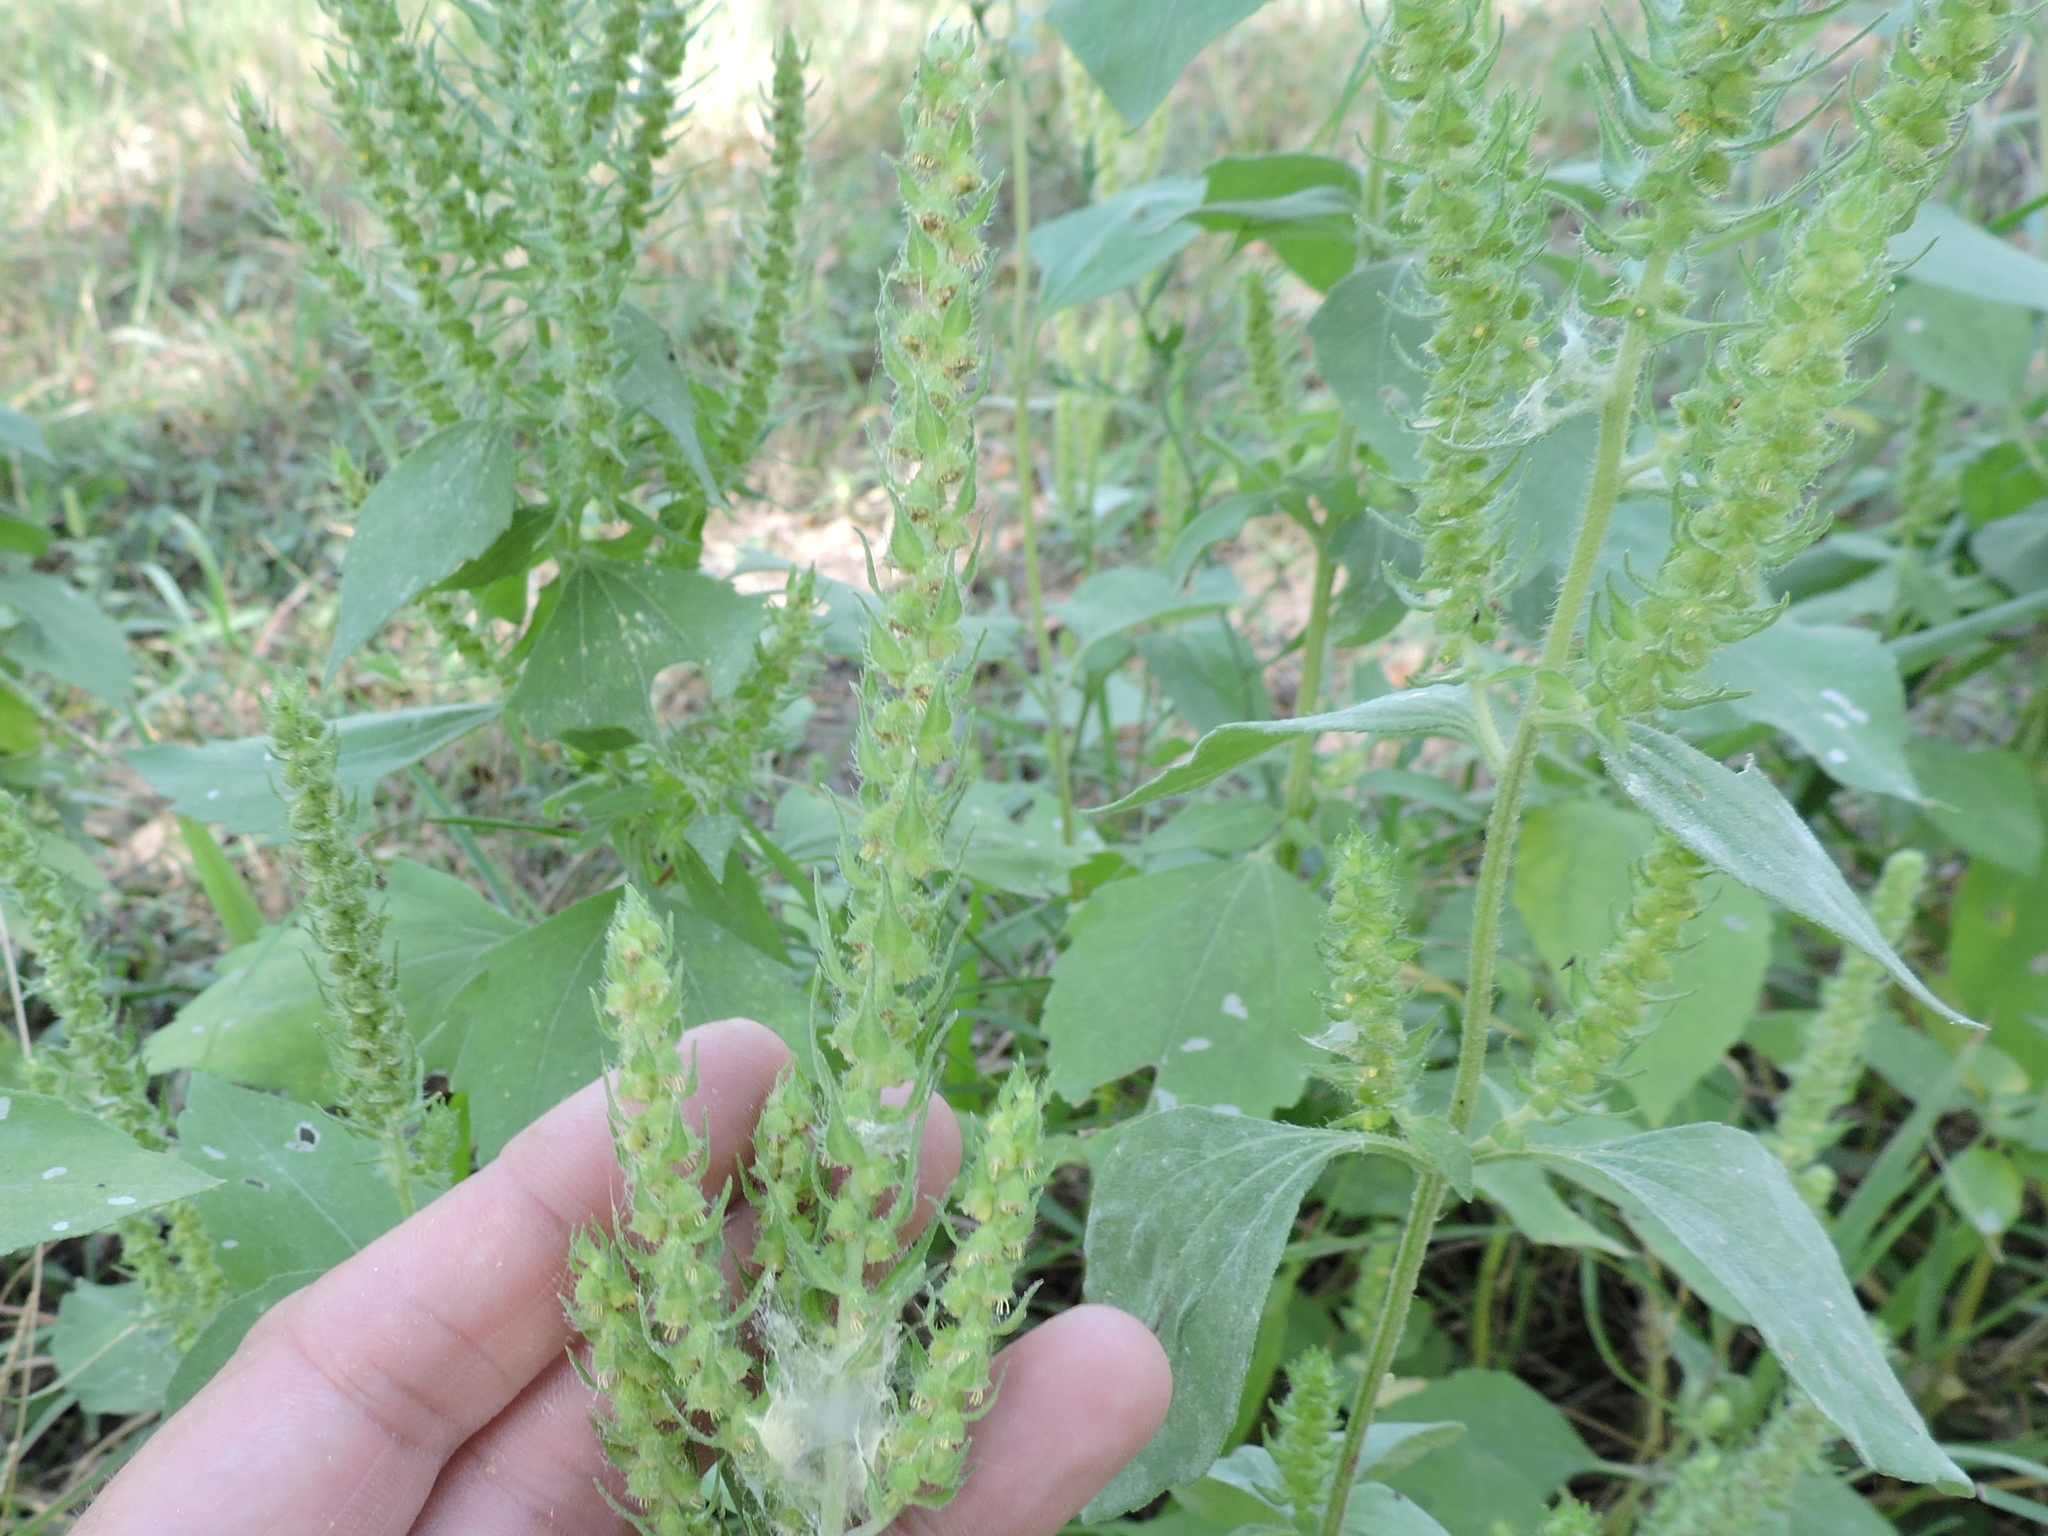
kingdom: Plantae
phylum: Tracheophyta
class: Magnoliopsida
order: Asterales
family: Asteraceae
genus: Iva
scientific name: Iva annua
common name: Marsh-elder
